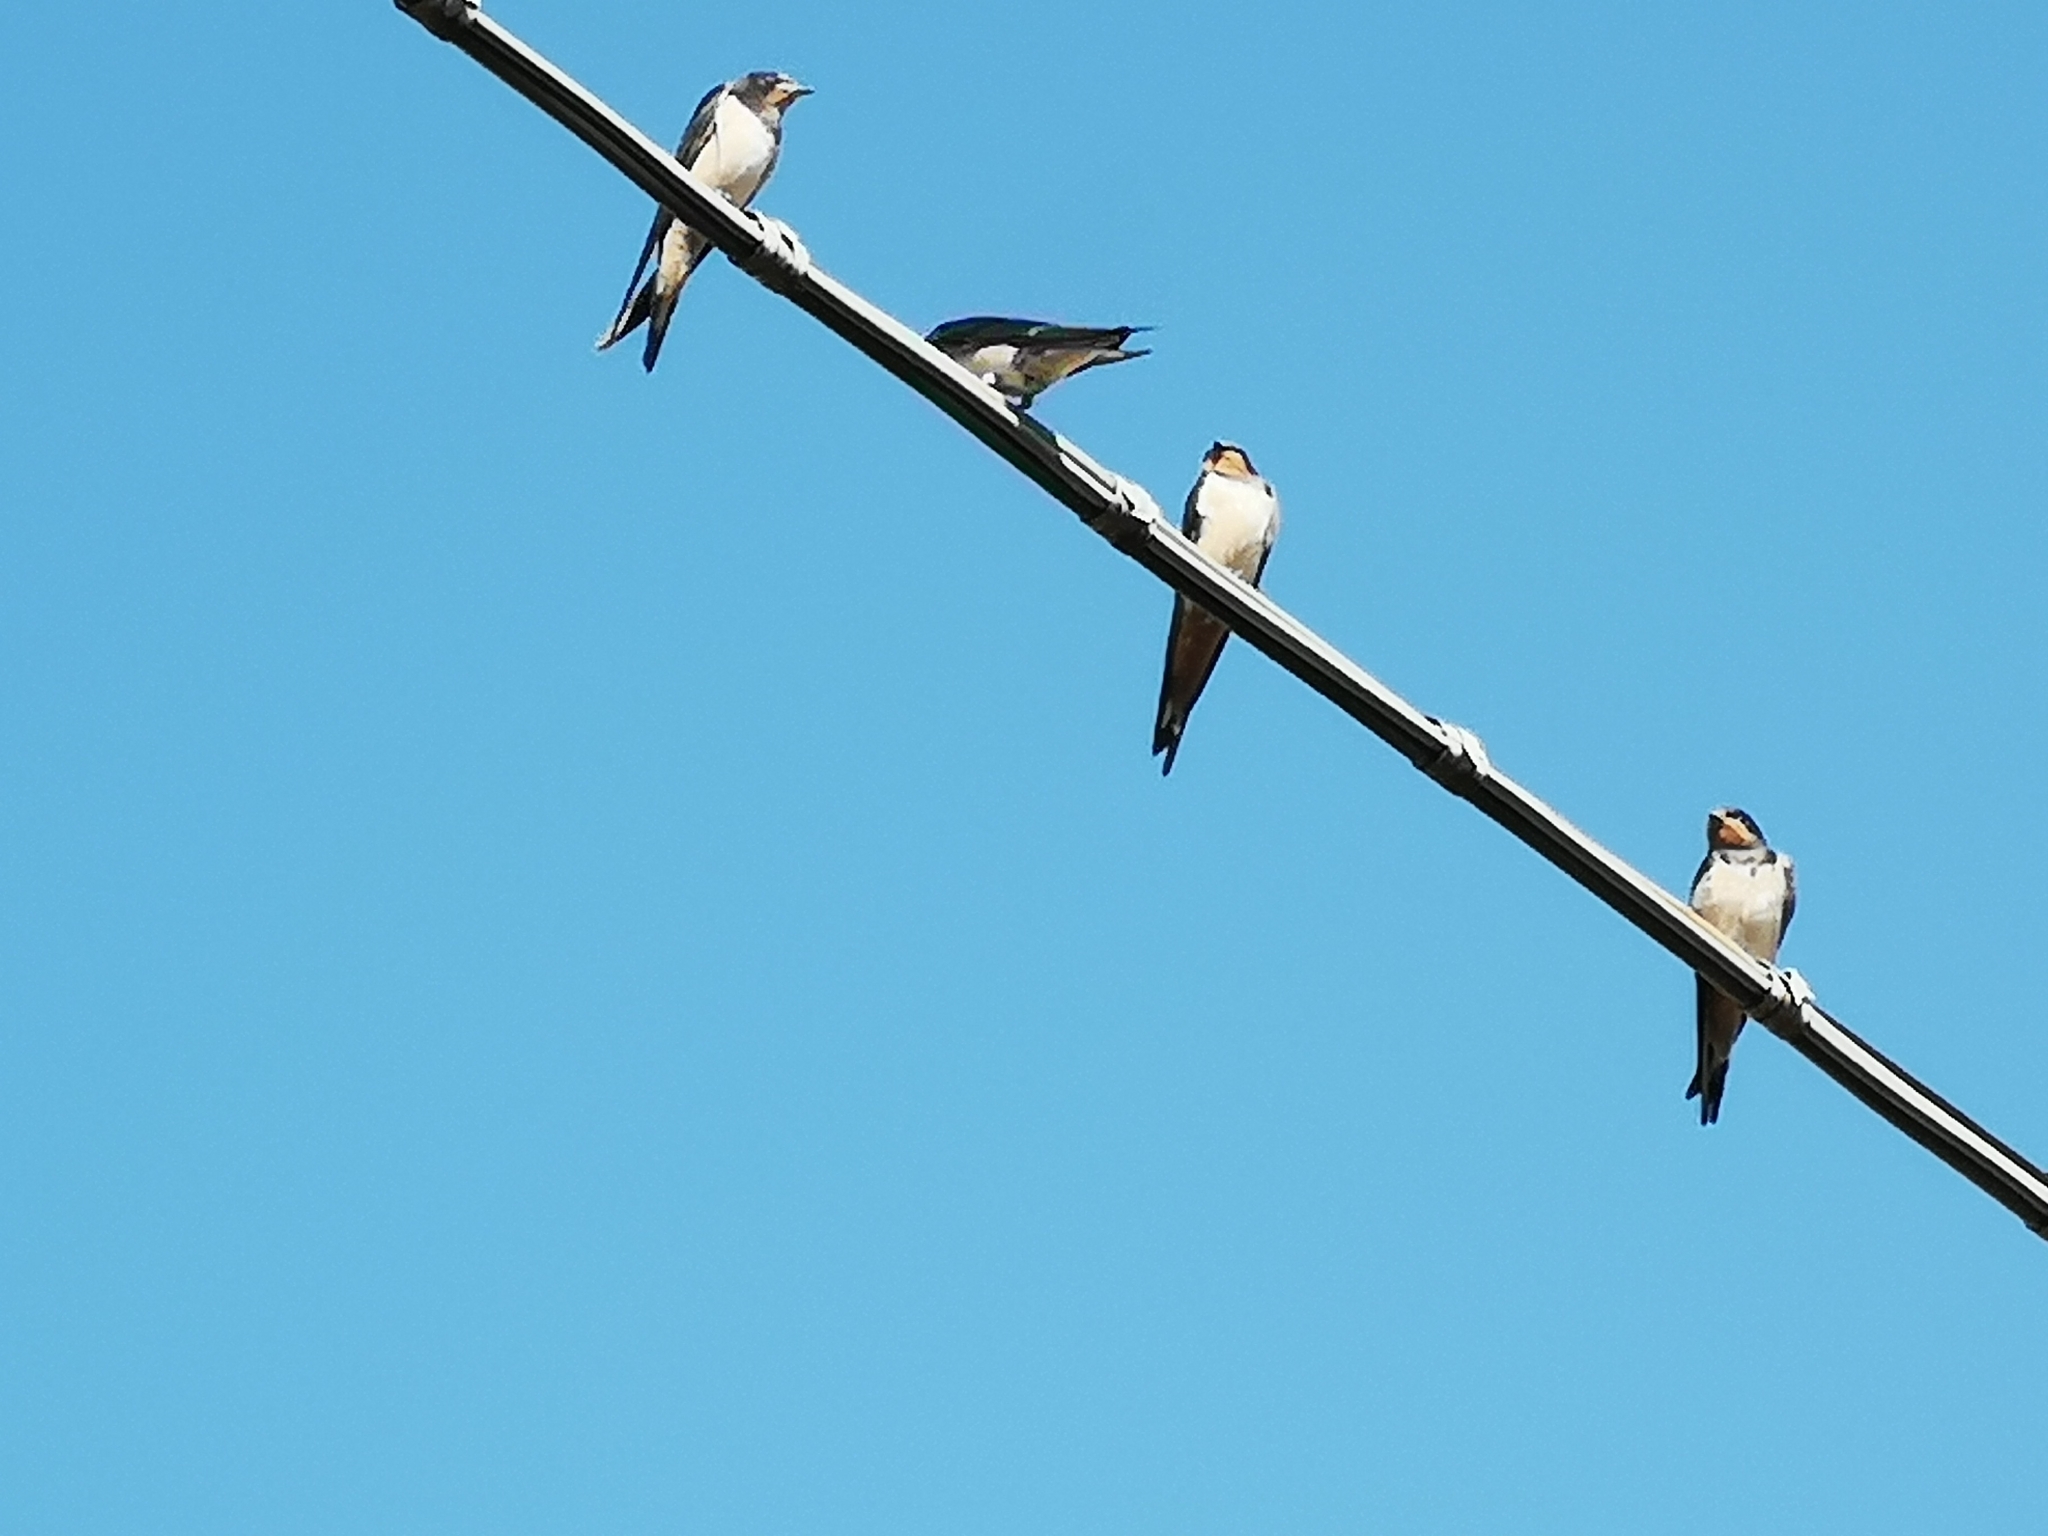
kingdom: Animalia
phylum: Chordata
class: Aves
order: Passeriformes
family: Hirundinidae
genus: Hirundo
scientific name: Hirundo rustica
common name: Barn swallow
